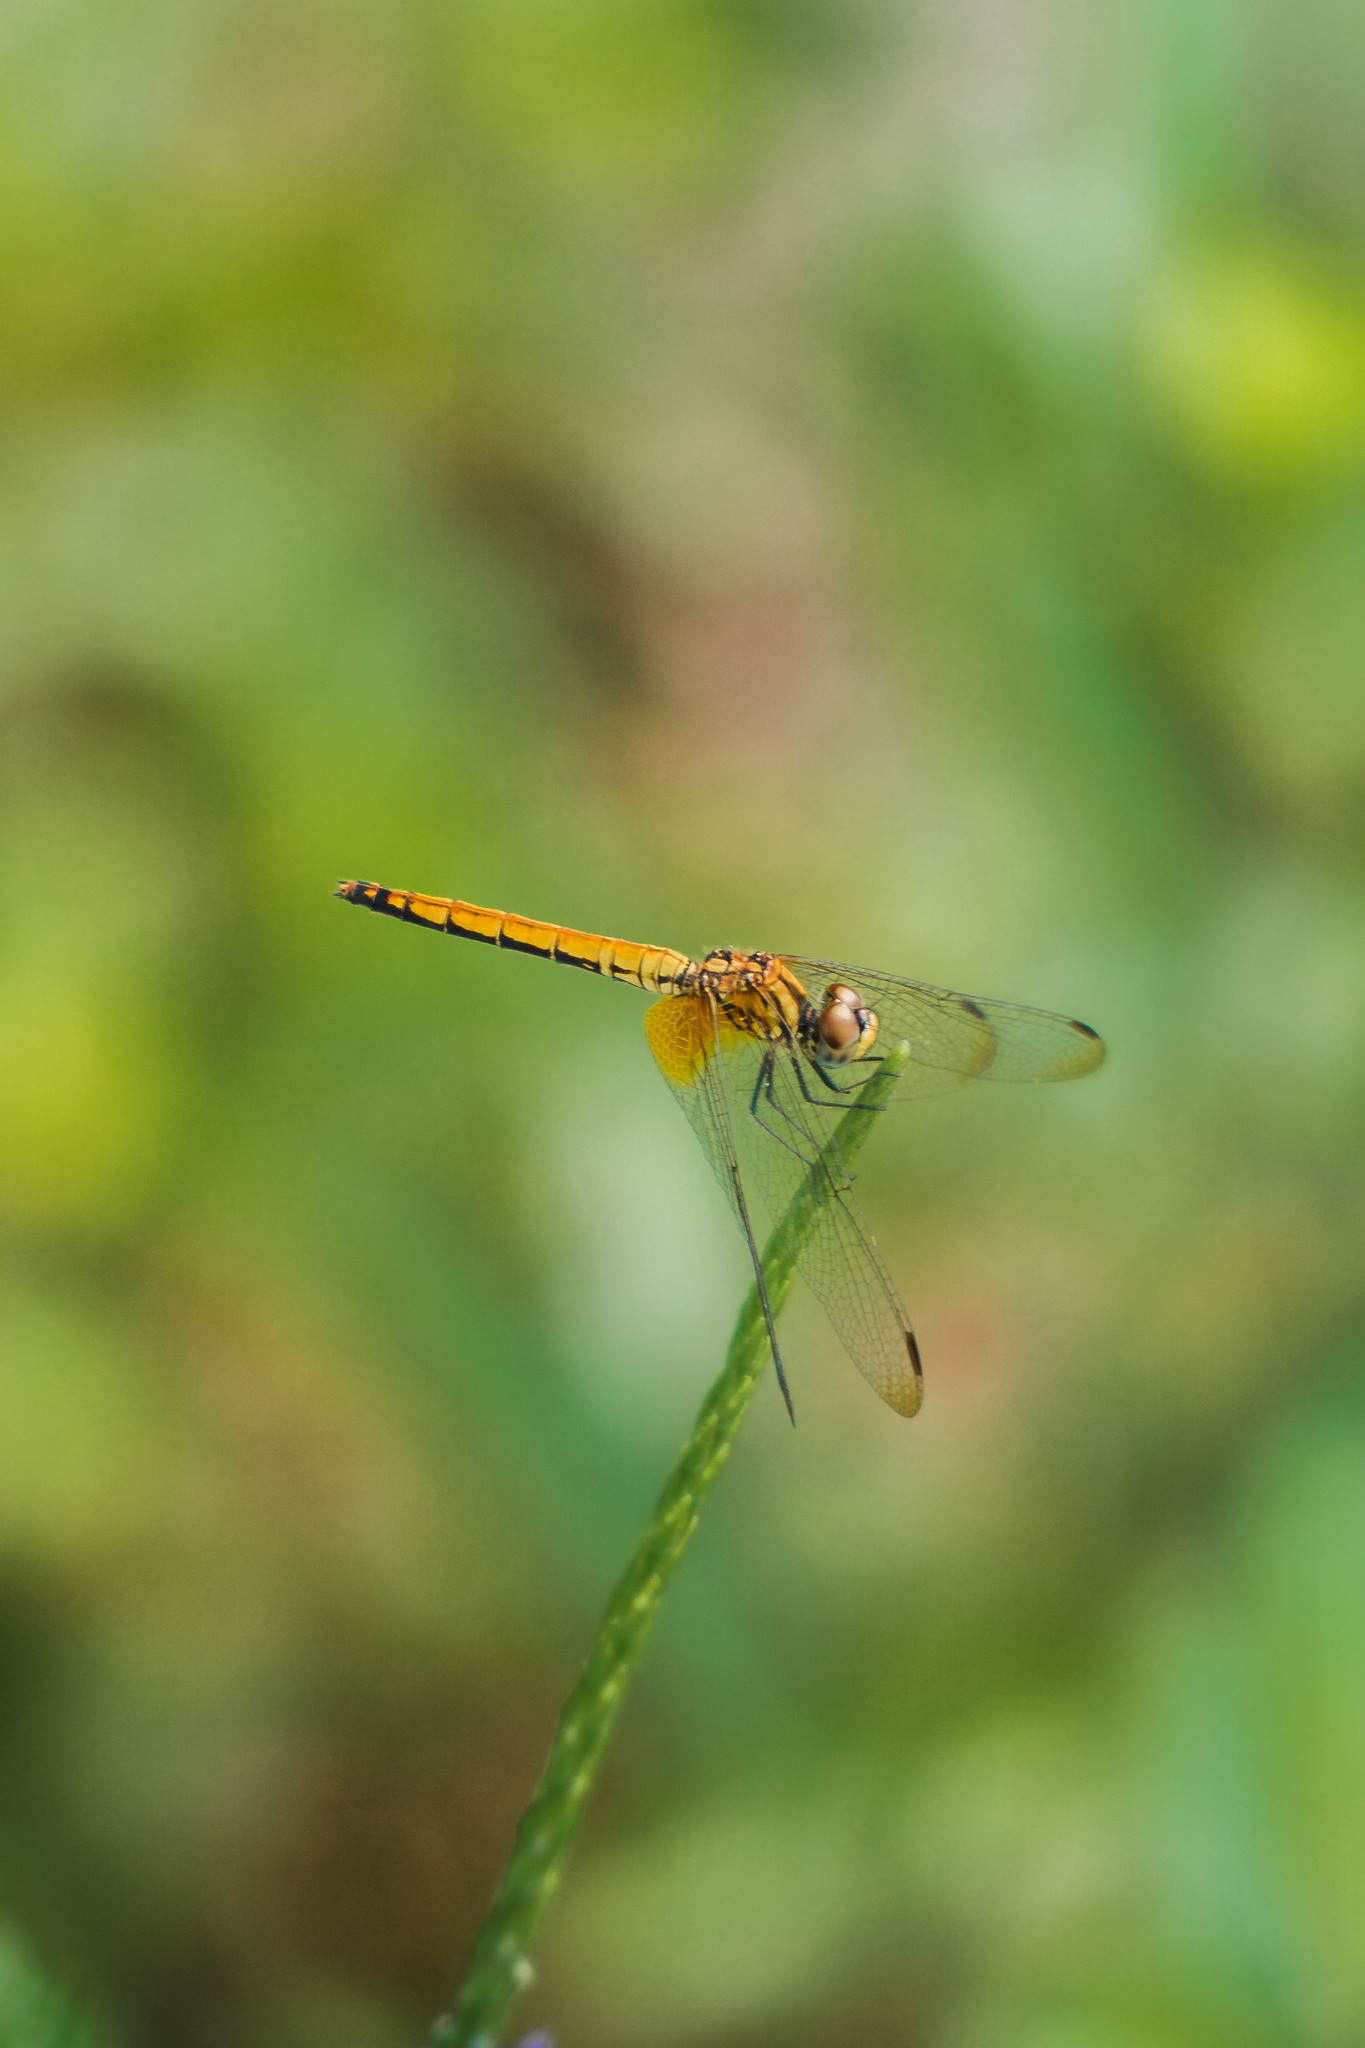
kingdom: Animalia
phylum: Arthropoda
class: Insecta
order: Odonata
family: Libellulidae
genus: Trithemis
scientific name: Trithemis aurora
